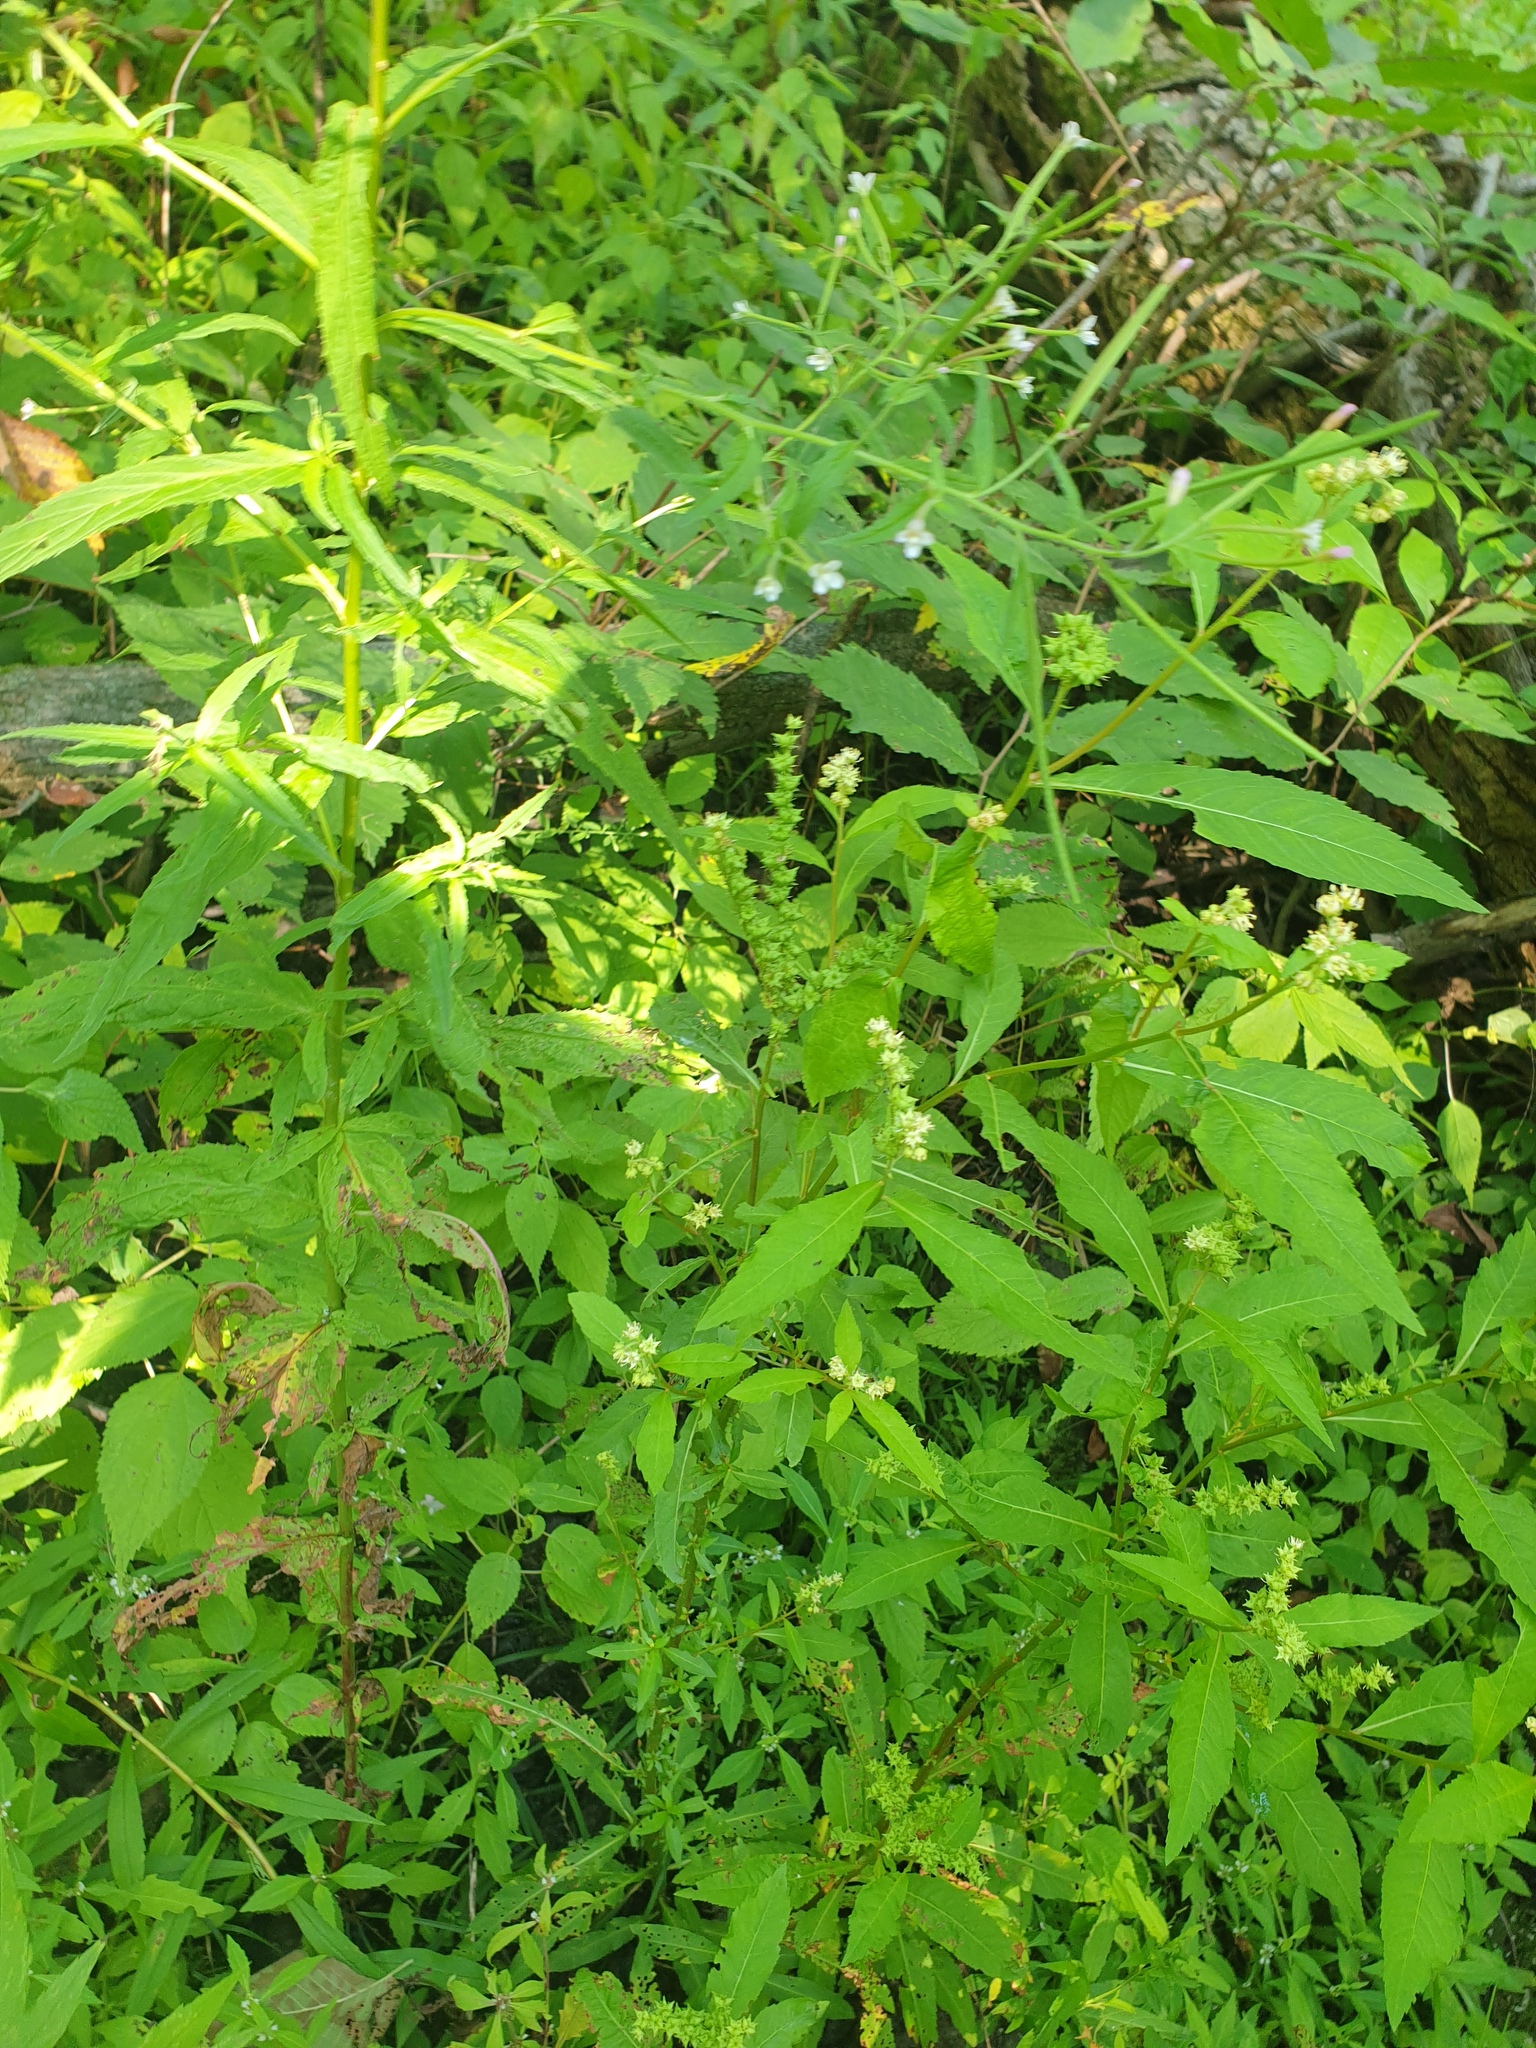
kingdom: Plantae
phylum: Tracheophyta
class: Magnoliopsida
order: Saxifragales
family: Penthoraceae
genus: Penthorum
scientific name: Penthorum sedoides
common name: Ditch stonecrop
